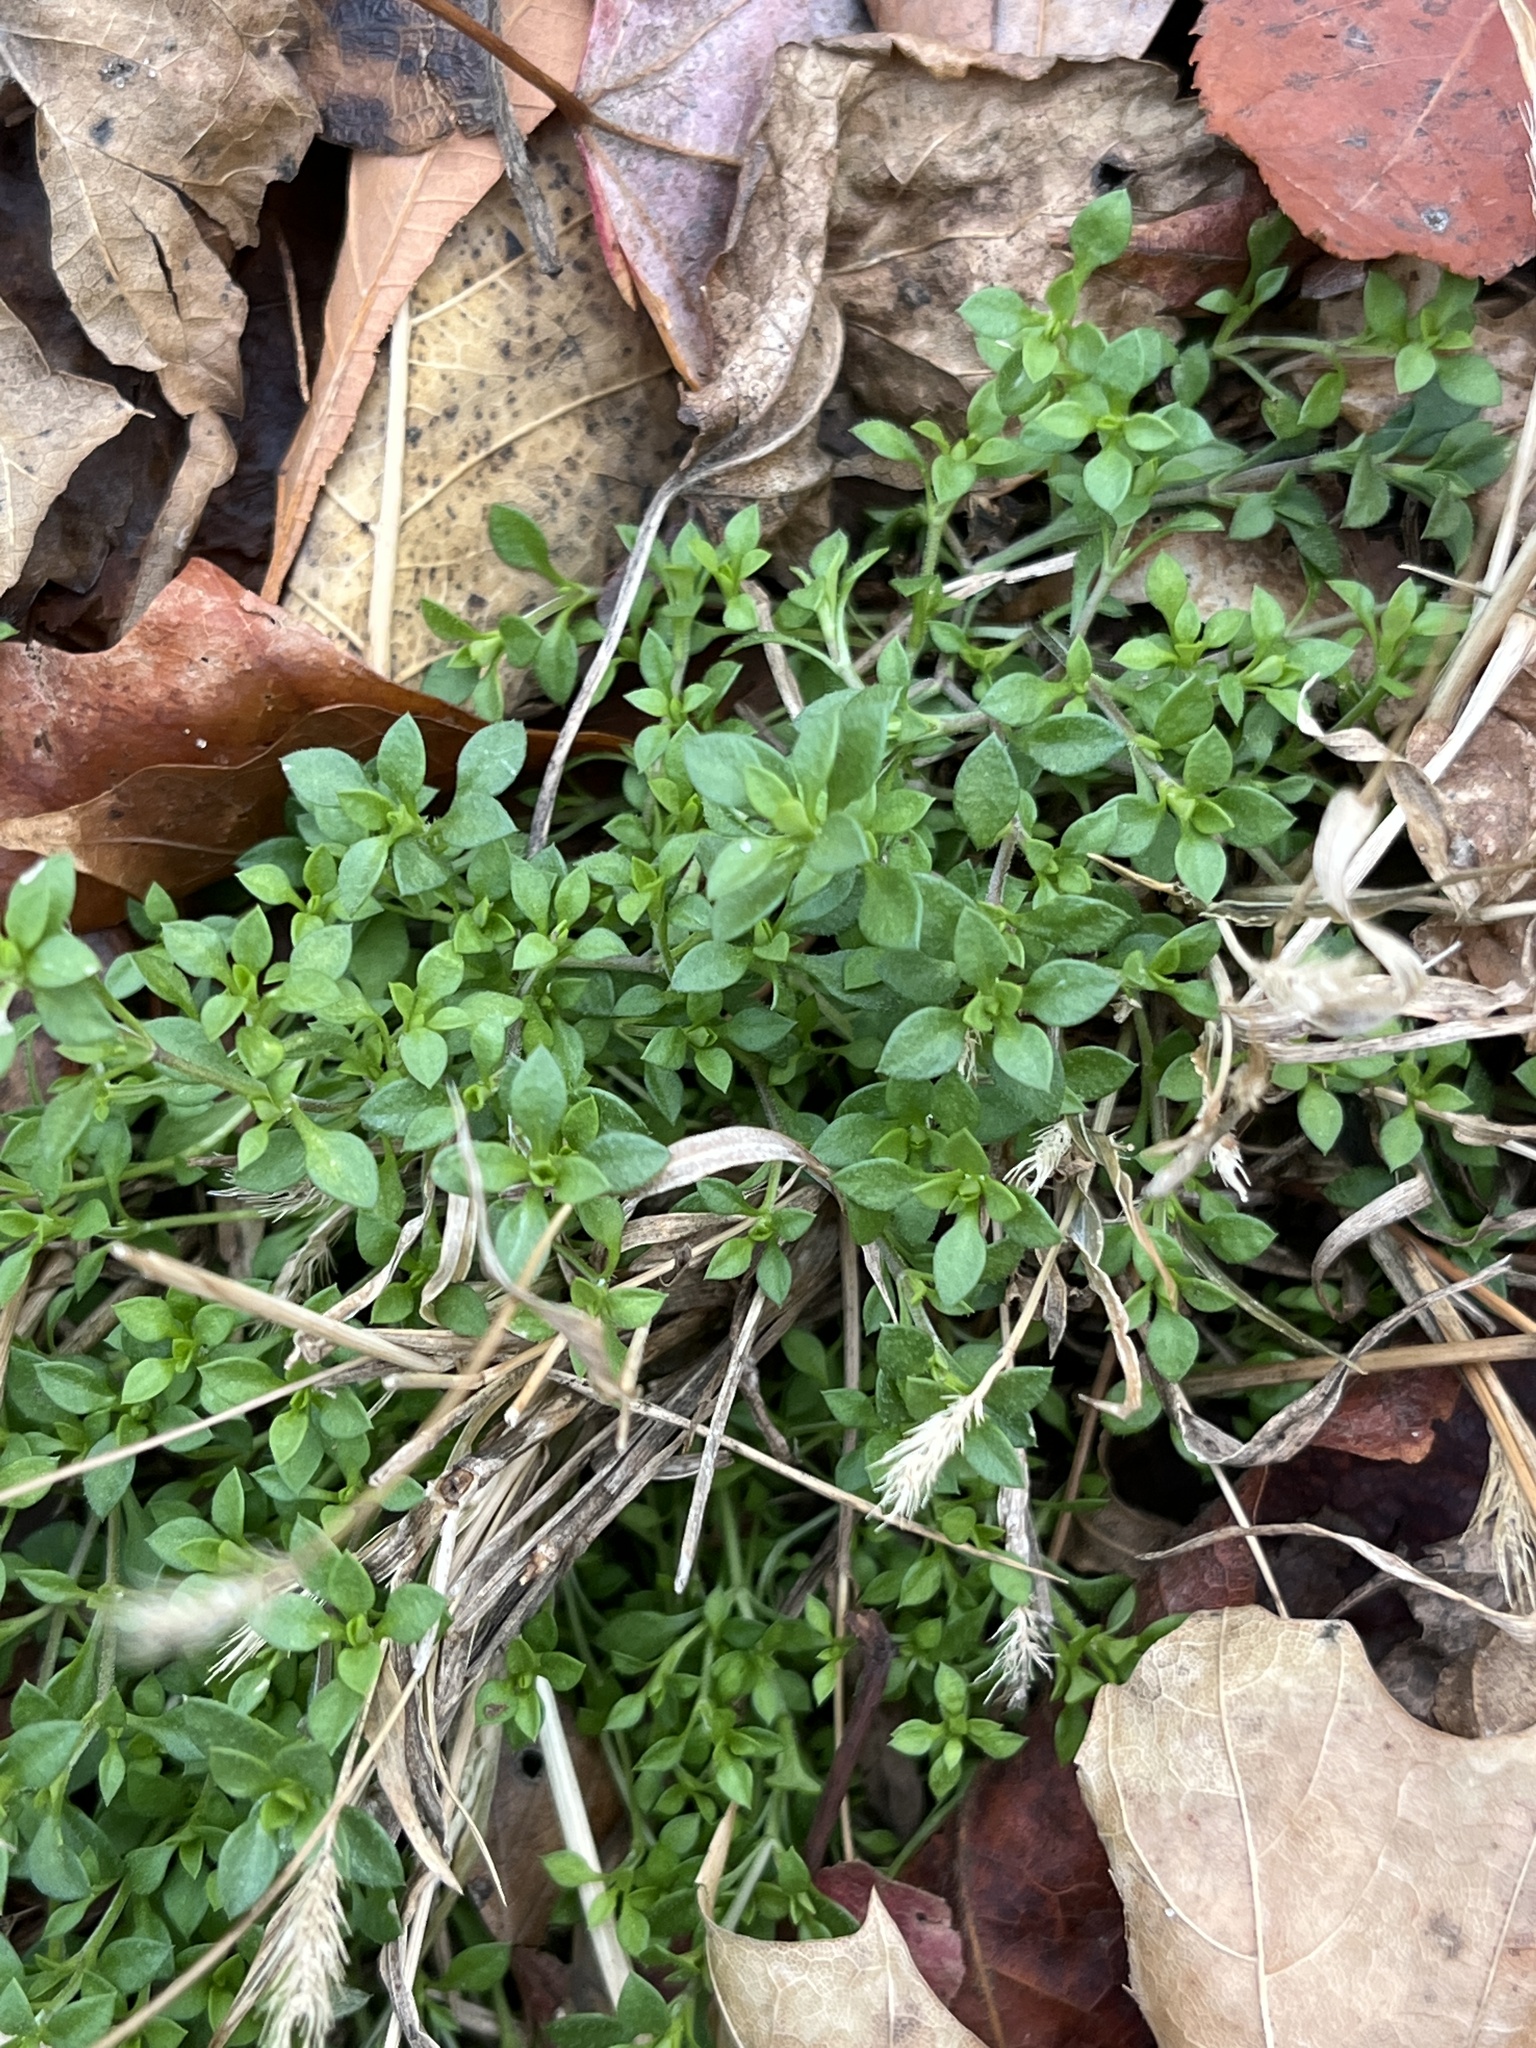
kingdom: Plantae
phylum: Tracheophyta
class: Magnoliopsida
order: Caryophyllales
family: Caryophyllaceae
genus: Stellaria
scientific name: Stellaria media
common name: Common chickweed
